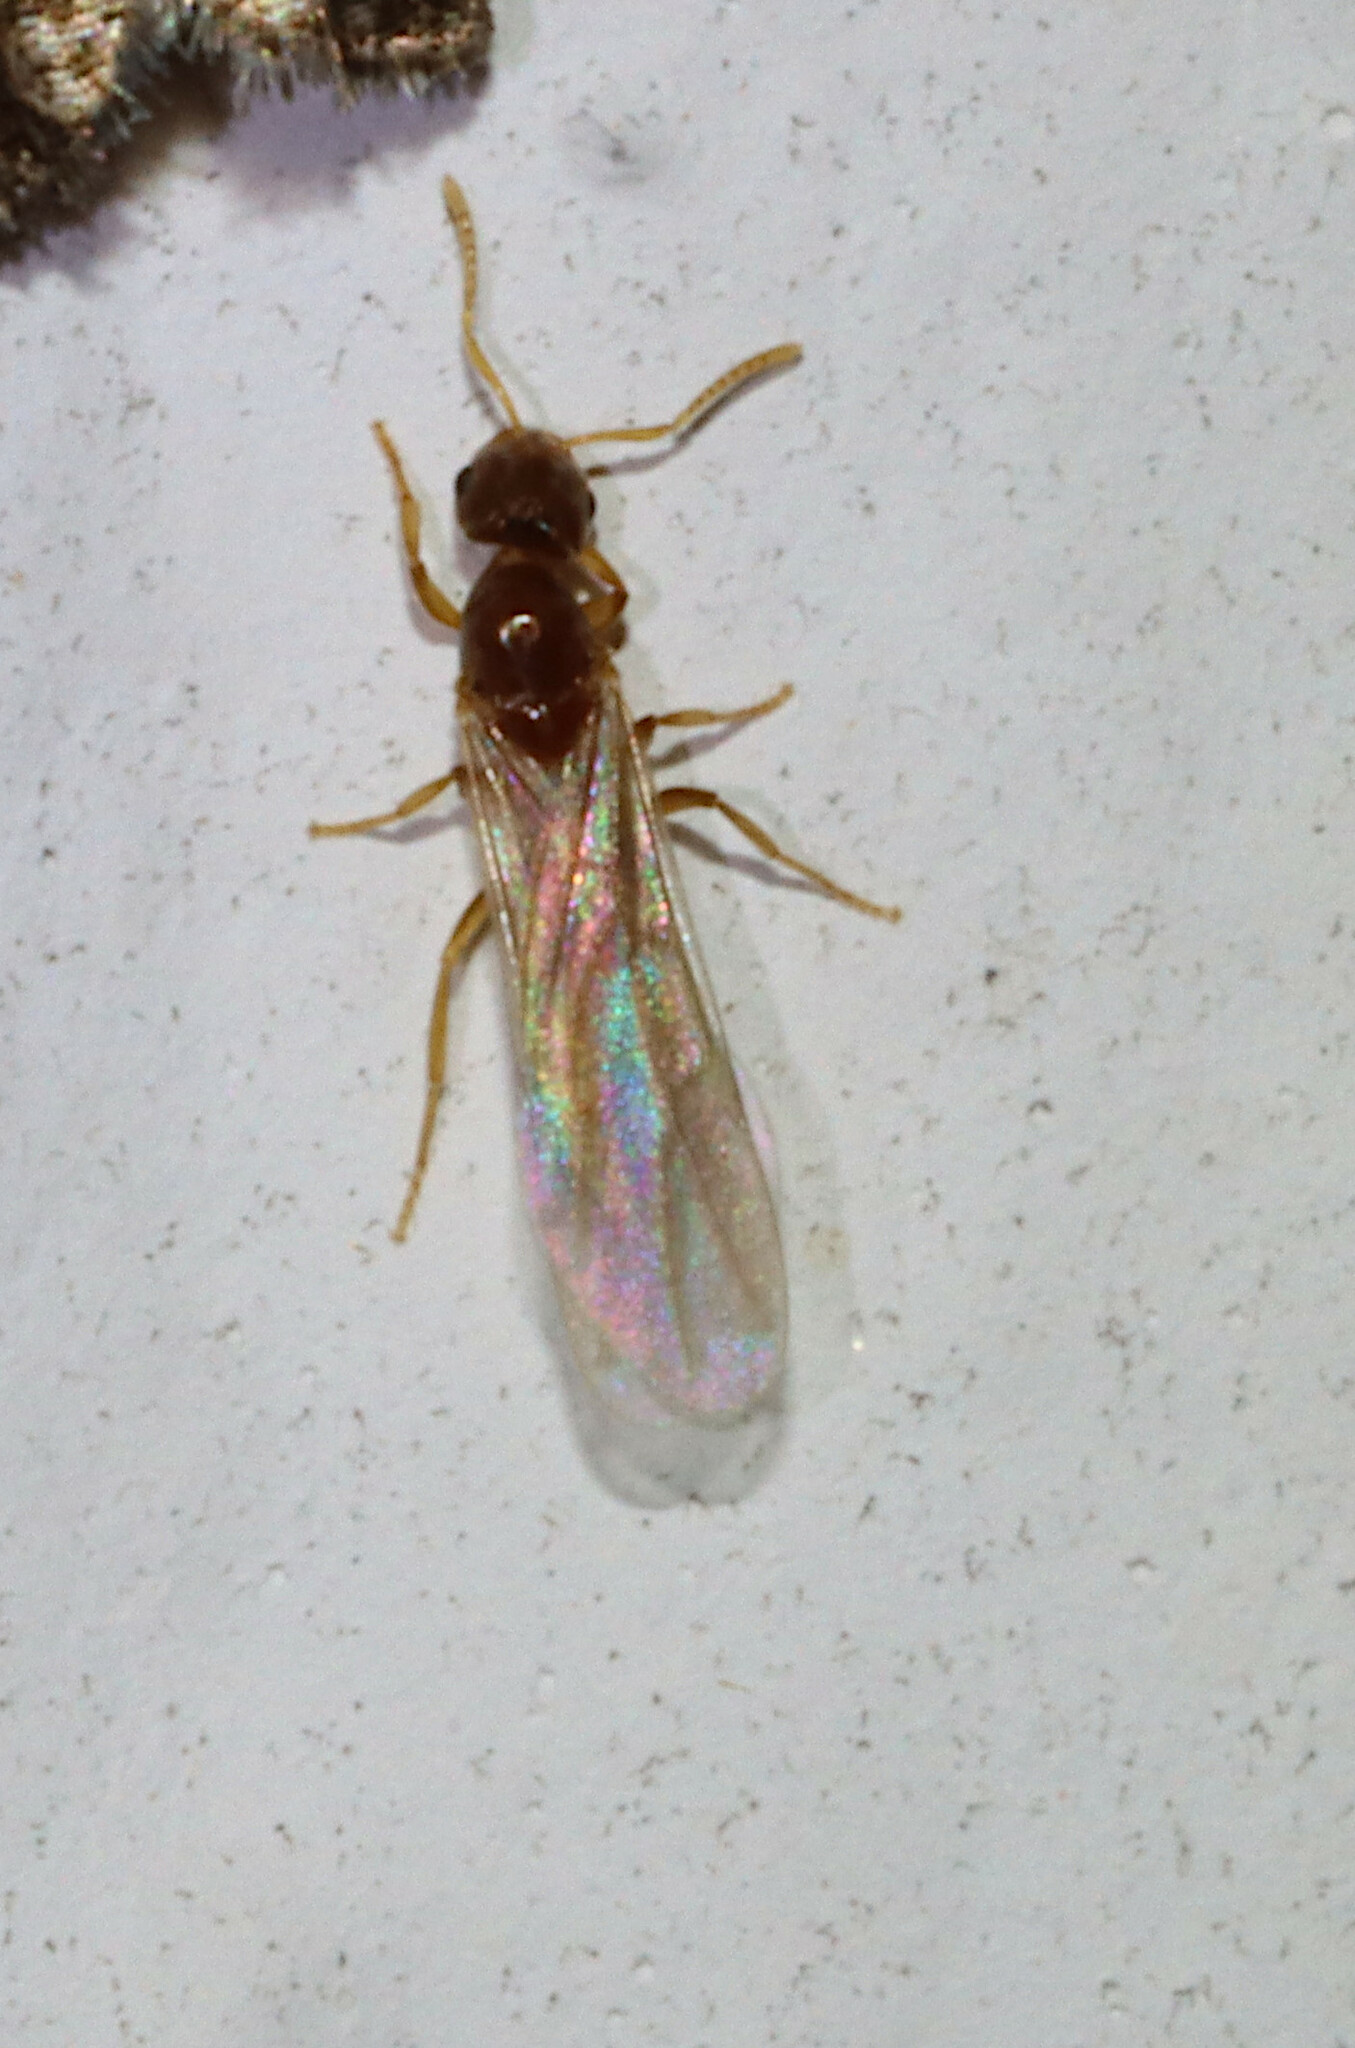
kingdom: Animalia
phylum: Arthropoda
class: Insecta
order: Hymenoptera
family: Formicidae
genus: Brachymyrmex
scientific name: Brachymyrmex depilis
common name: Hairless rover ant
